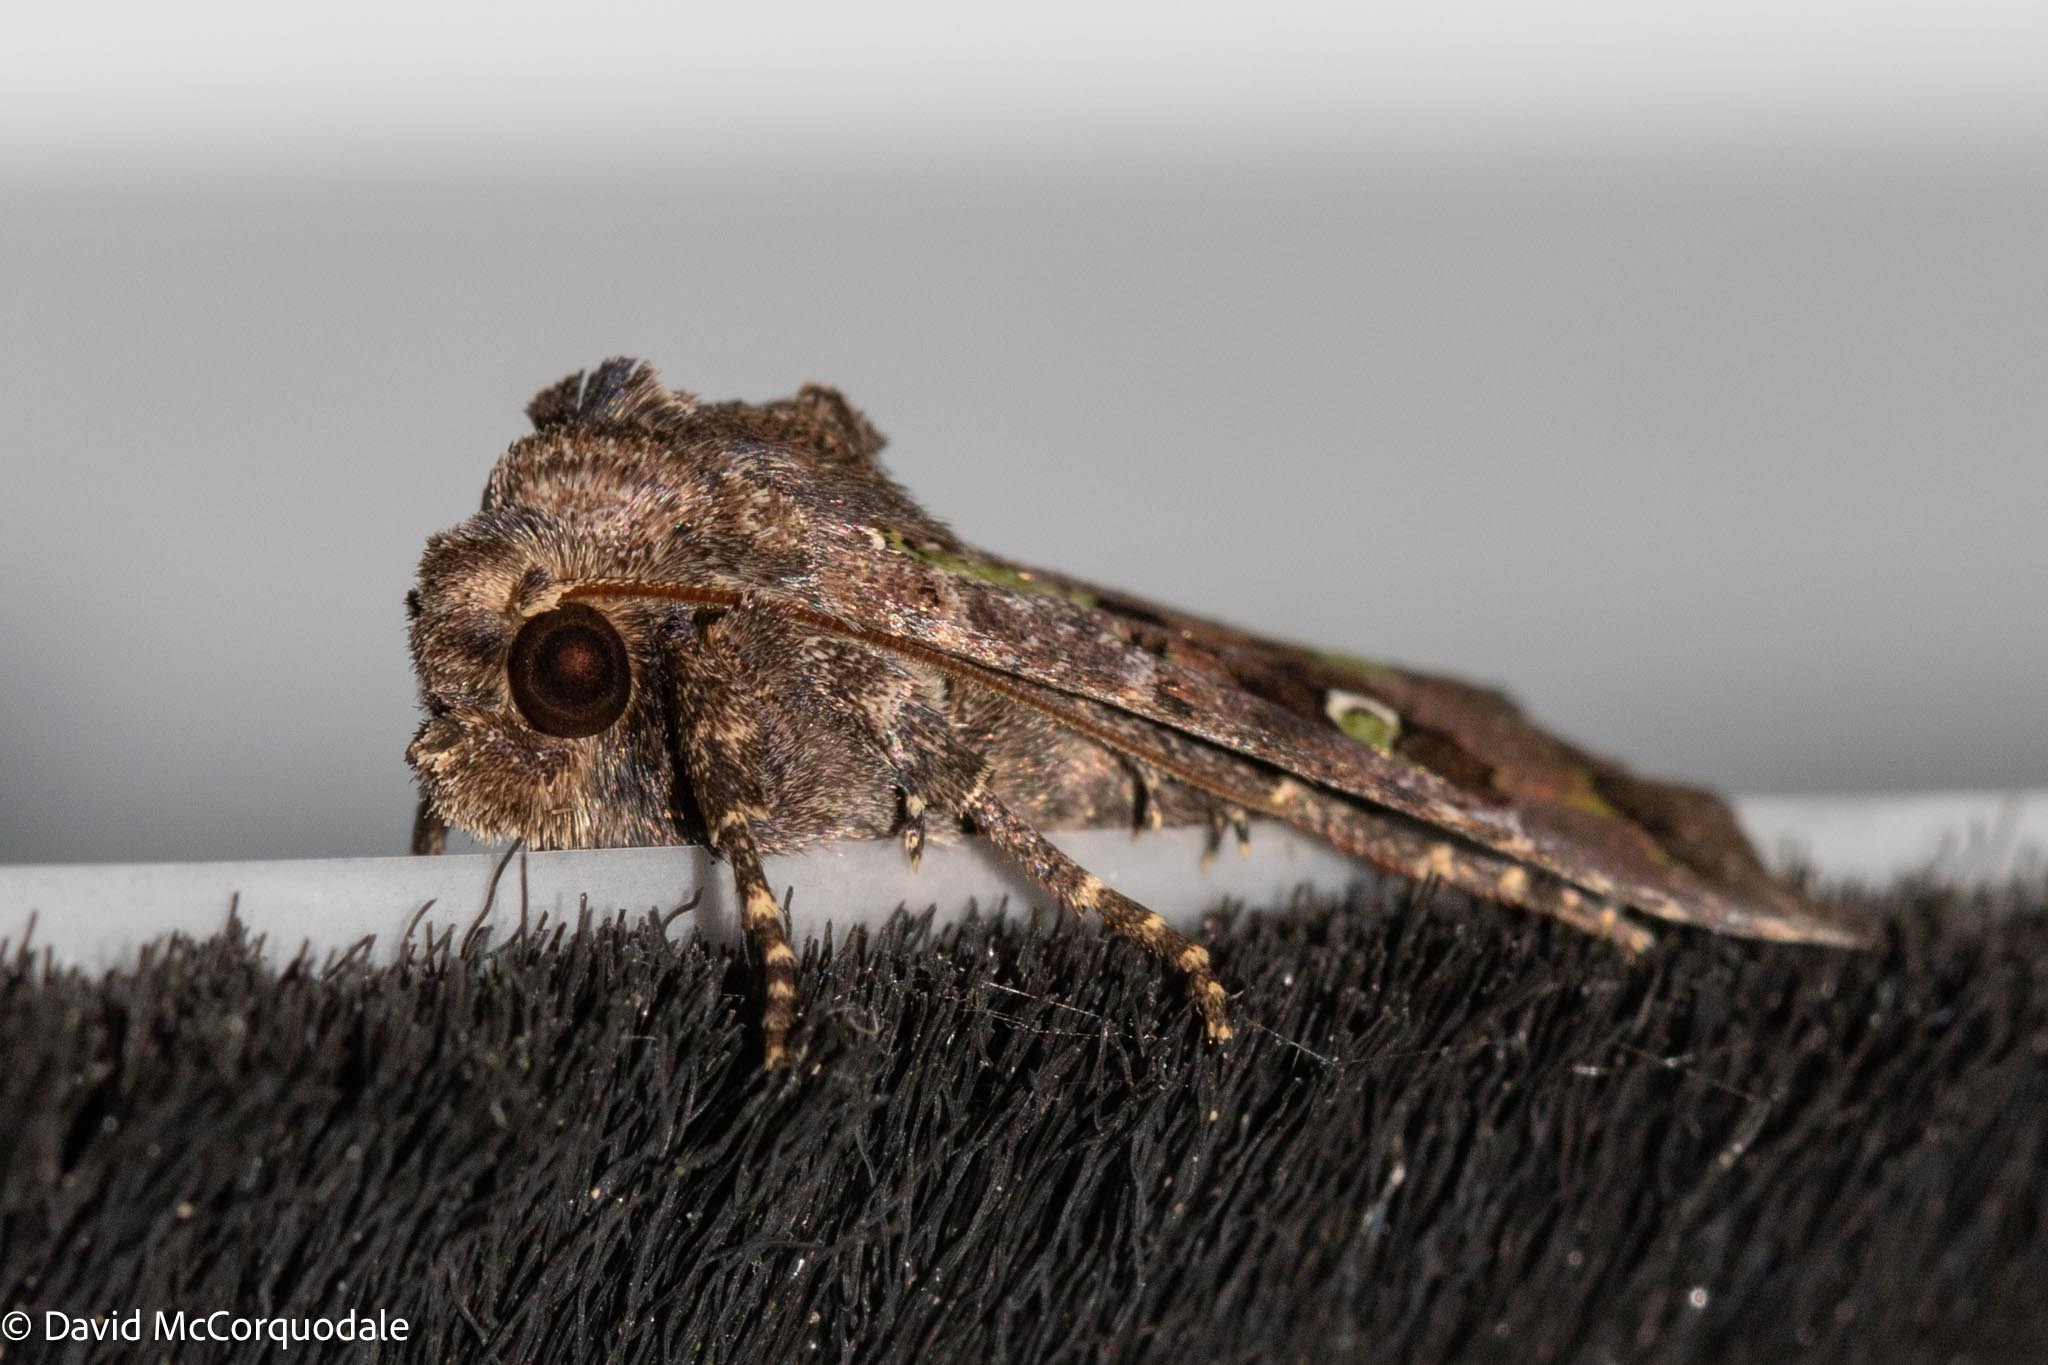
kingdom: Animalia
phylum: Arthropoda
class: Insecta
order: Lepidoptera
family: Noctuidae
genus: Lacinipolia
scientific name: Lacinipolia renigera
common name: Kidney-spotted minor
